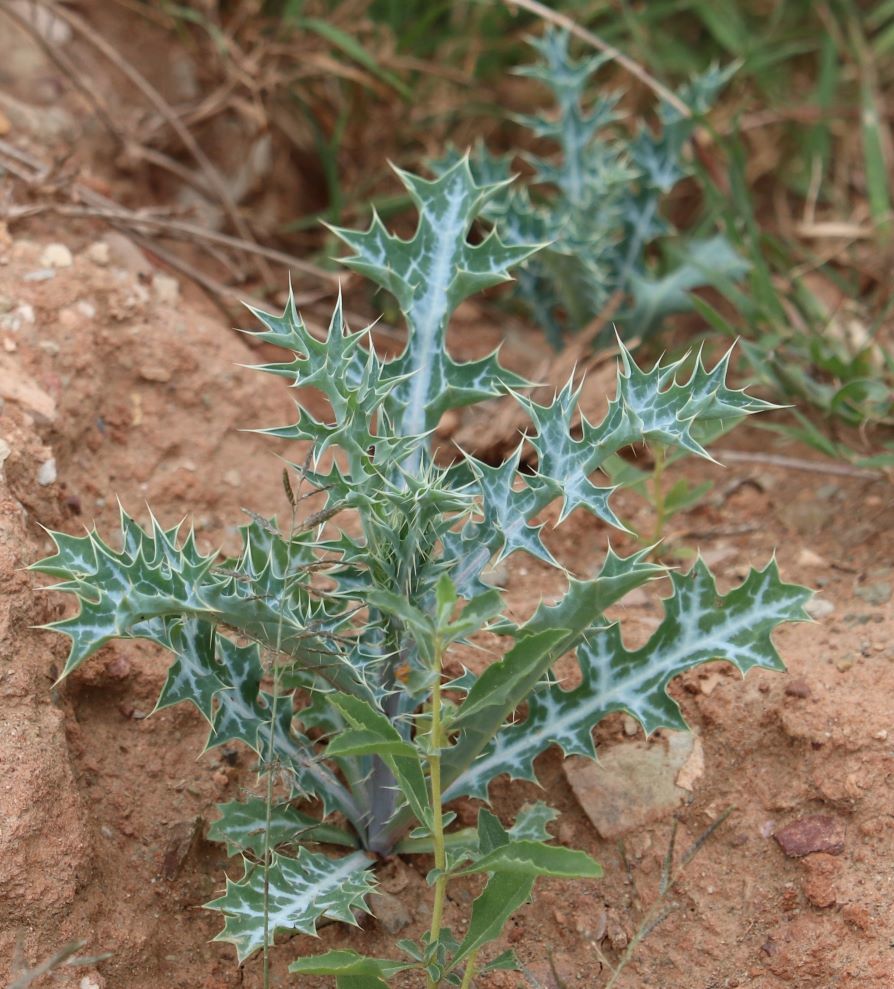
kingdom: Plantae
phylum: Tracheophyta
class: Magnoliopsida
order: Ranunculales
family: Papaveraceae
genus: Argemone
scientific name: Argemone ochroleuca
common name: White-flower mexican-poppy
